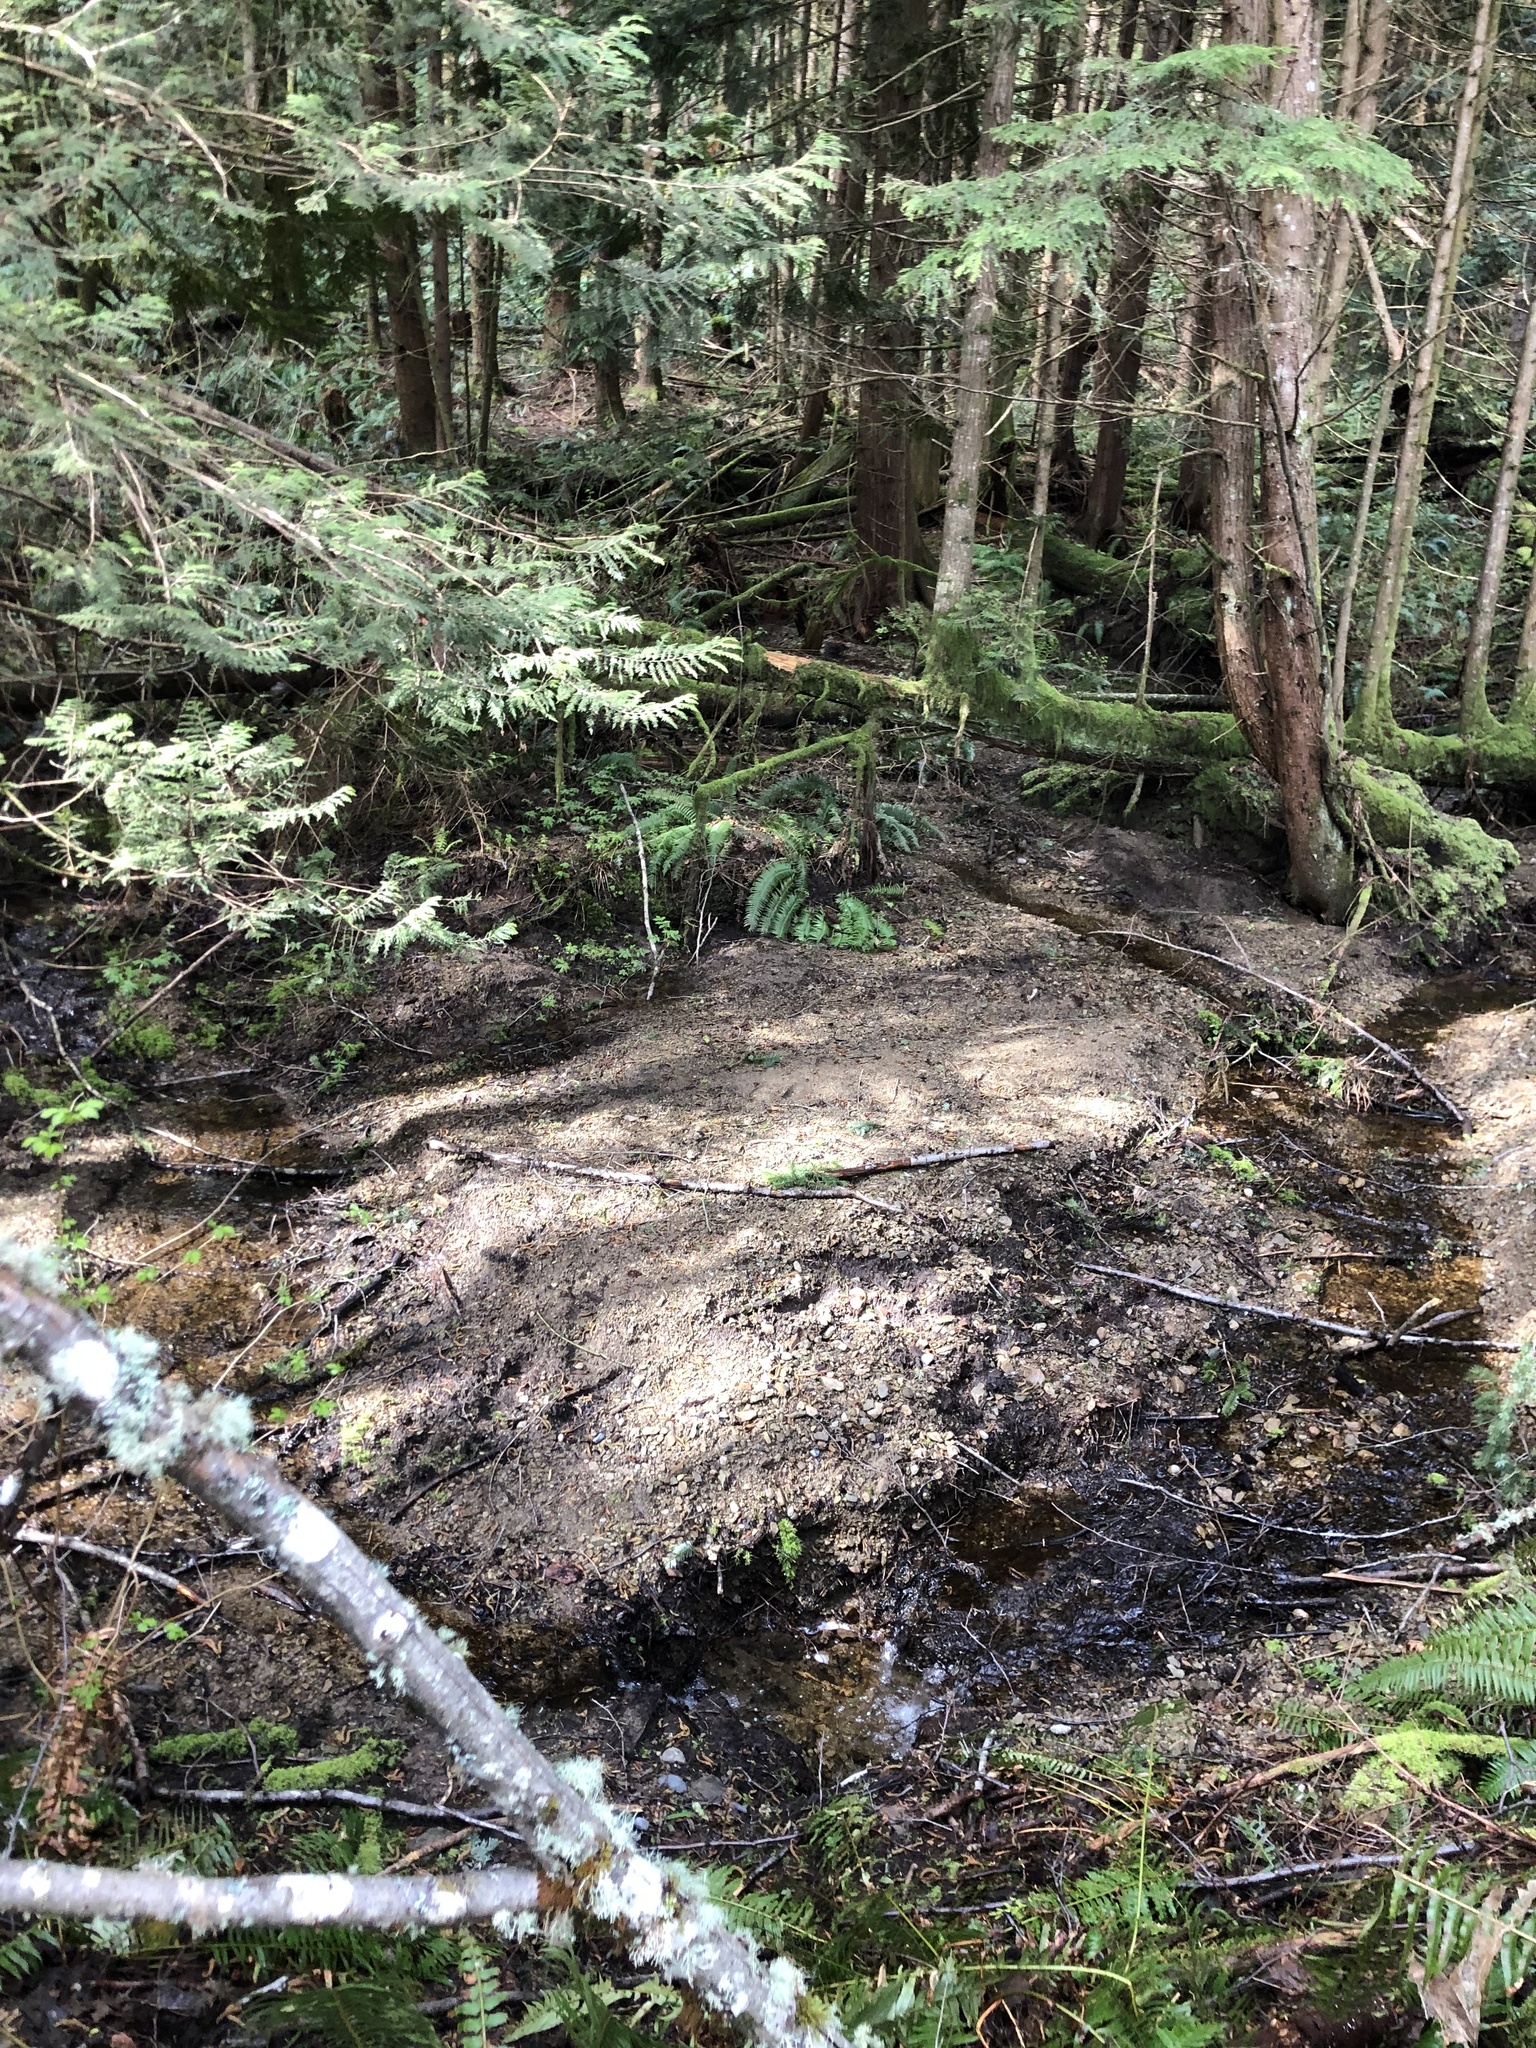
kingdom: Plantae
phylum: Tracheophyta
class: Pinopsida
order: Pinales
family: Pinaceae
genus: Tsuga
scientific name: Tsuga heterophylla
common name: Western hemlock
